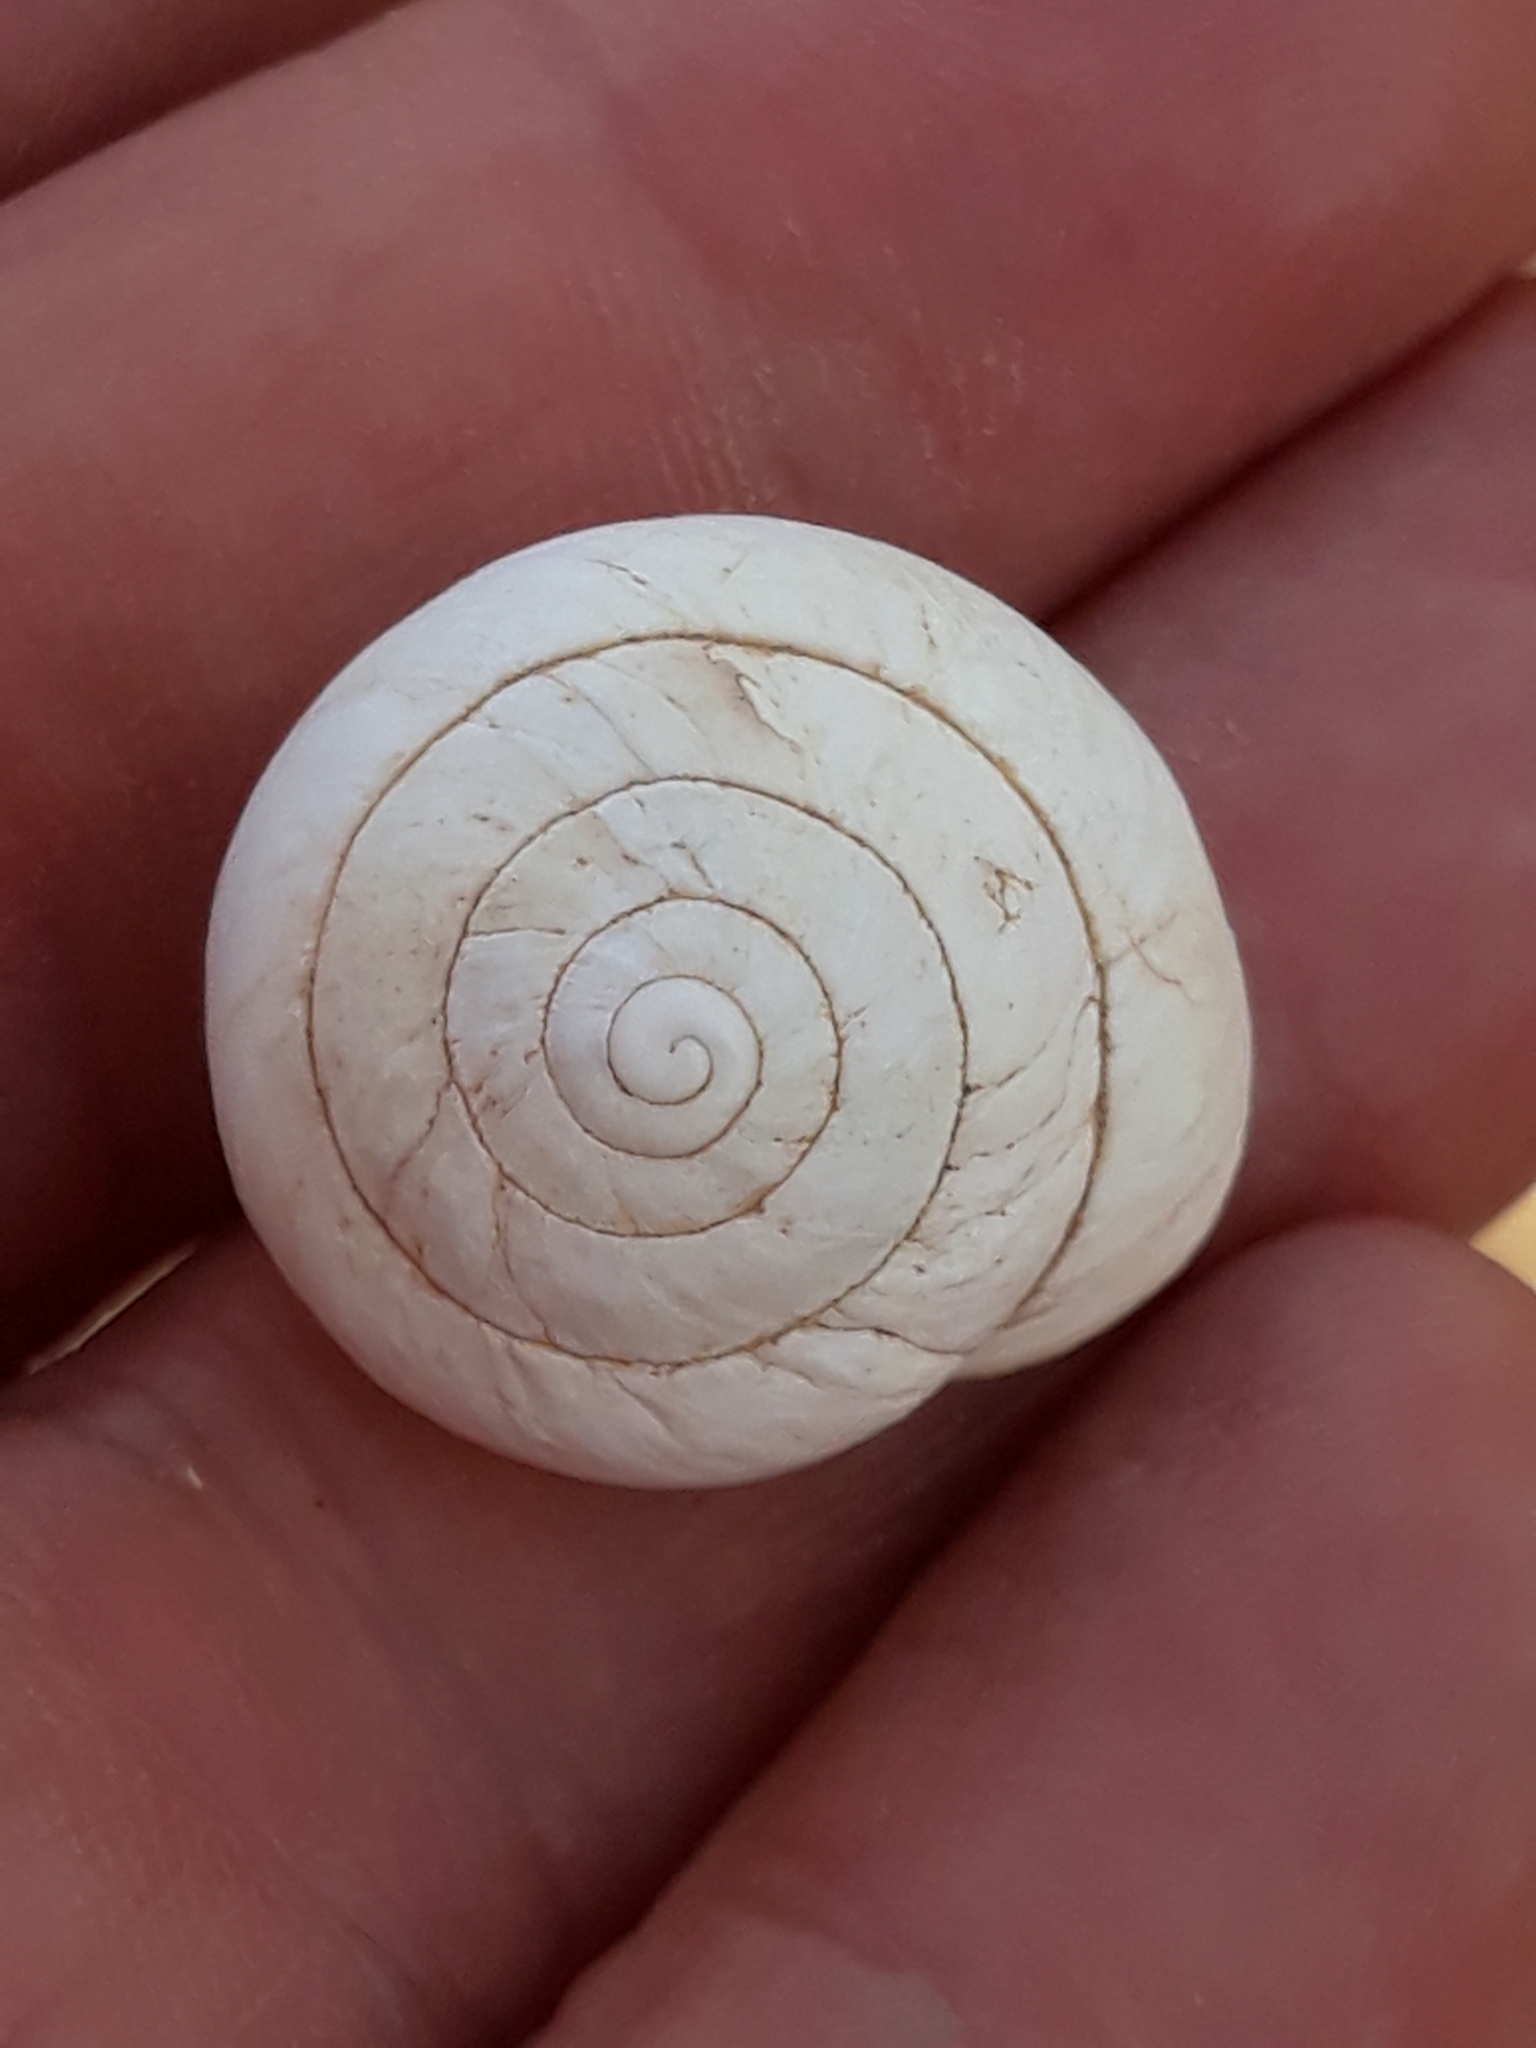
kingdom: Animalia
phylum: Mollusca
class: Gastropoda
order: Stylommatophora
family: Sphincterochilidae
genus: Sphincterochila
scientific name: Sphincterochila candidissima
